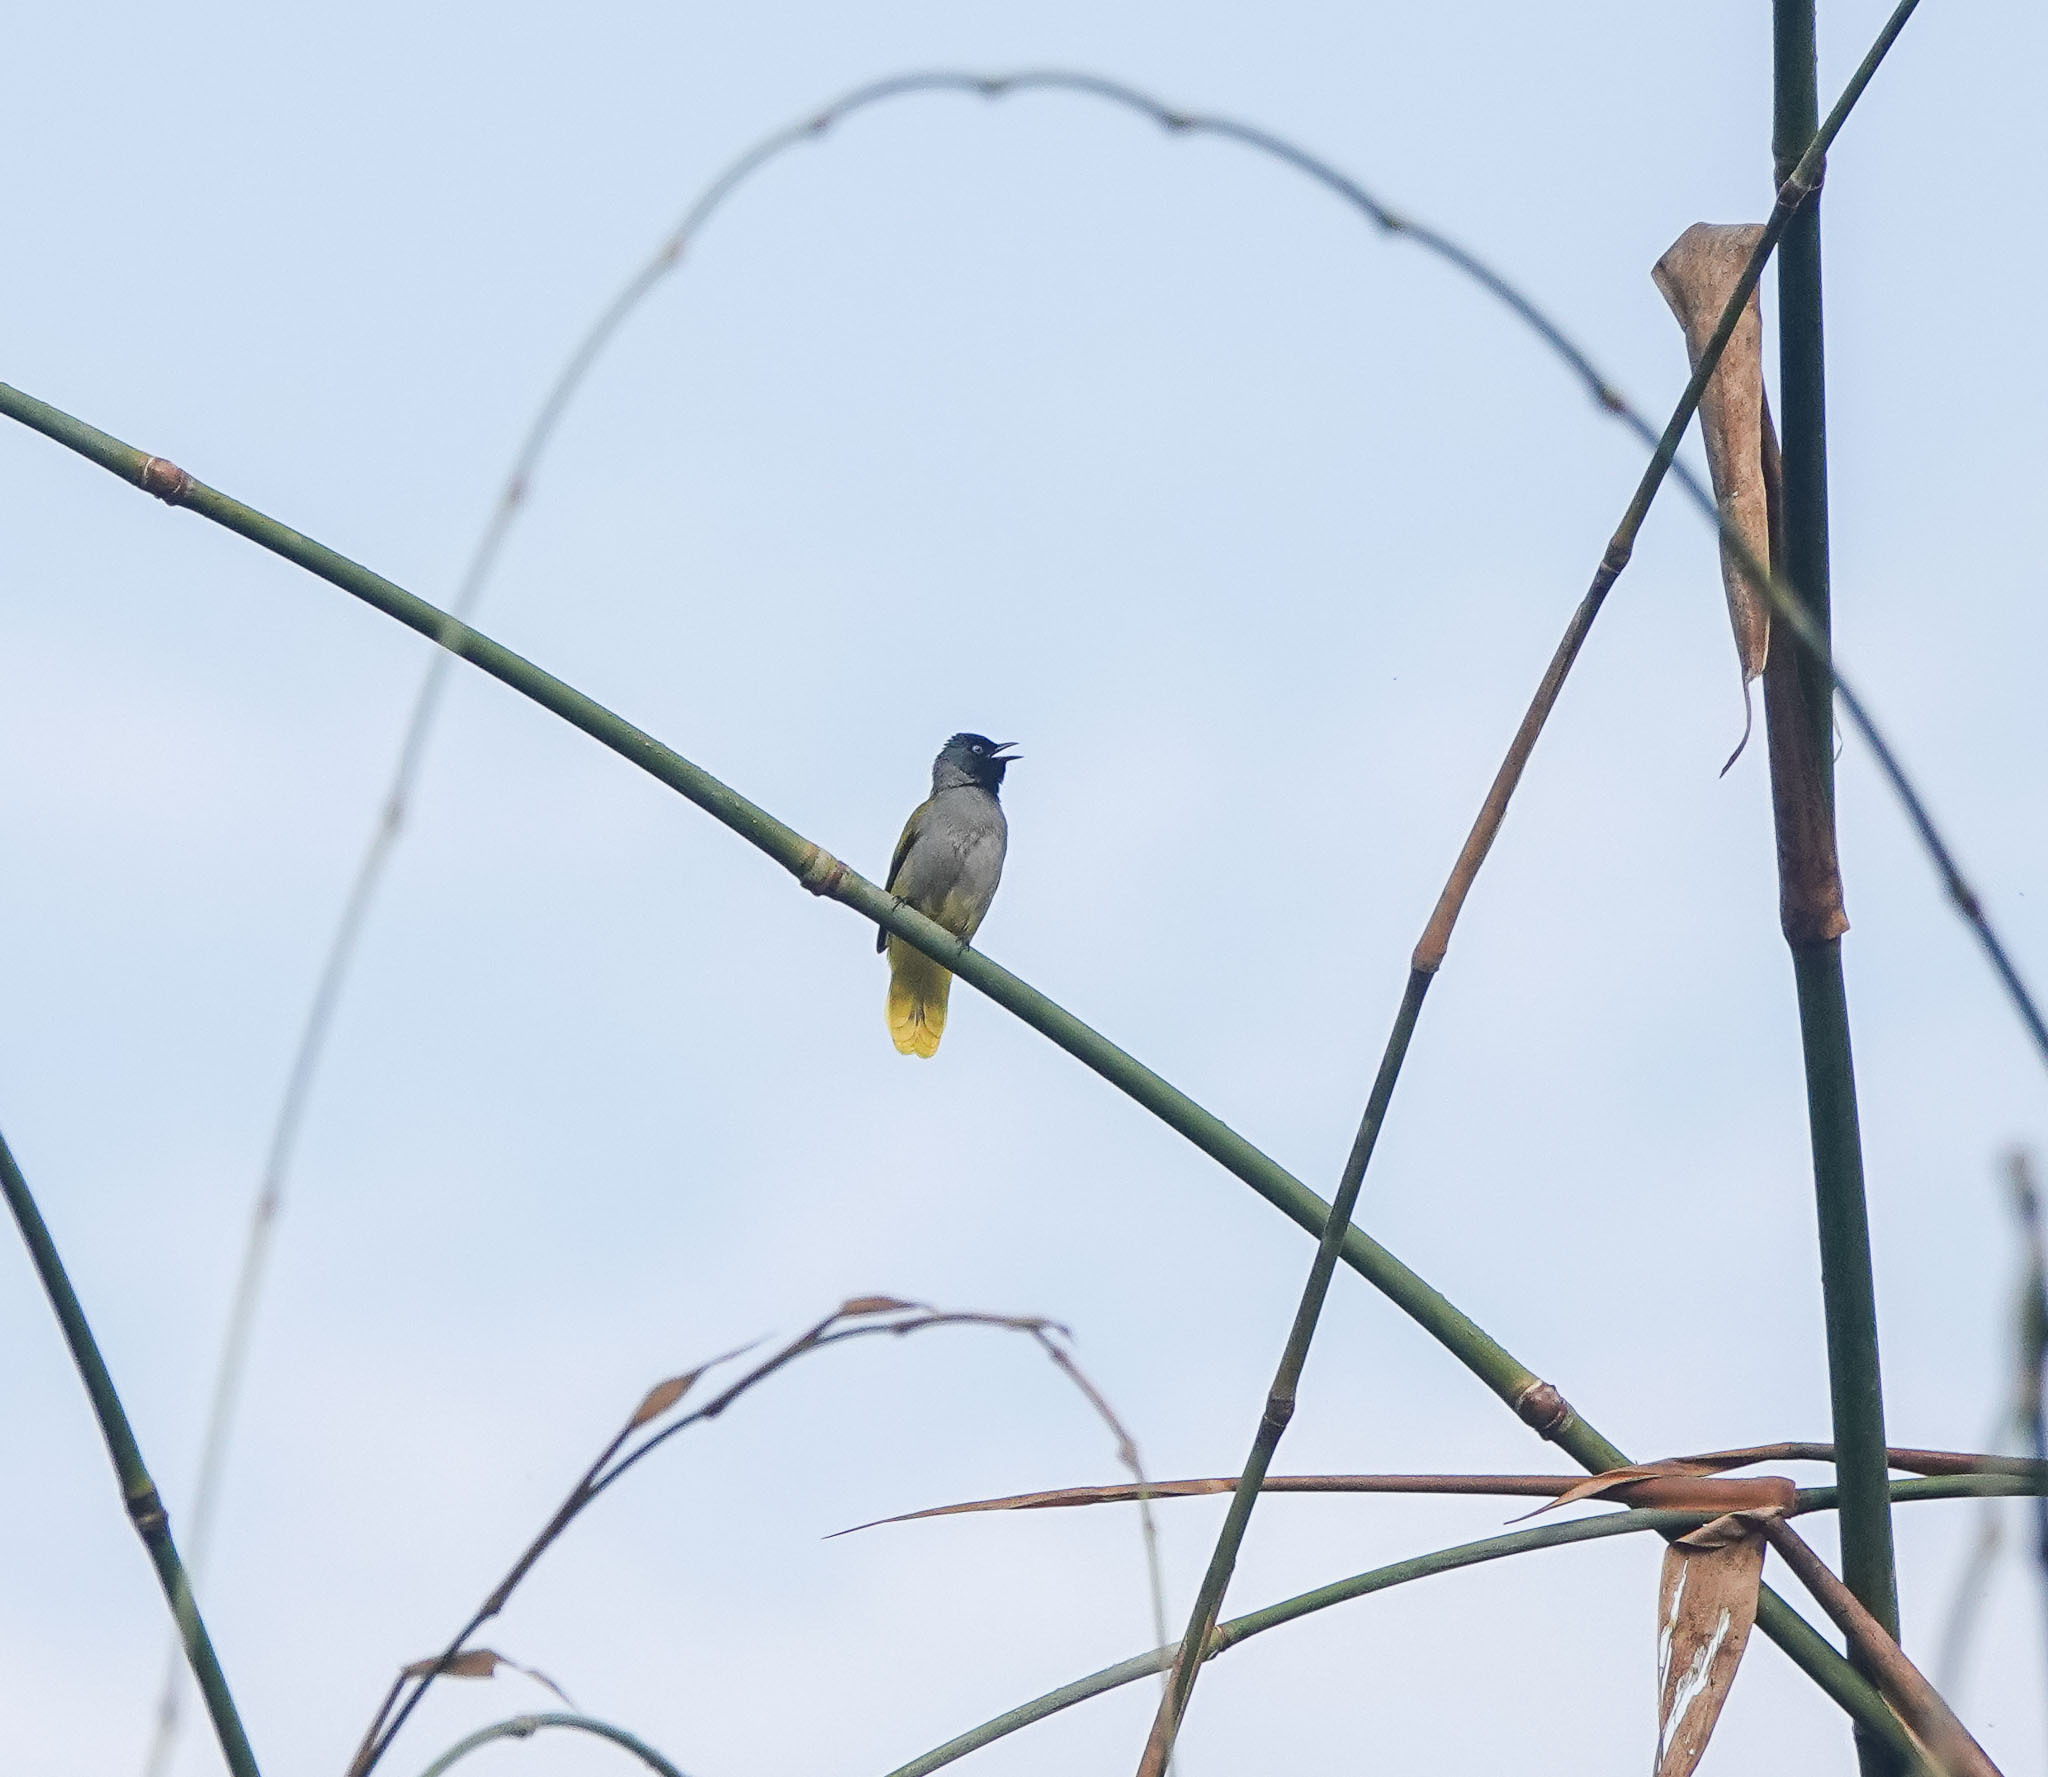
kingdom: Animalia
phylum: Chordata
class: Aves
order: Passeriformes
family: Pycnonotidae
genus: Microtarsus
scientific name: Microtarsus
